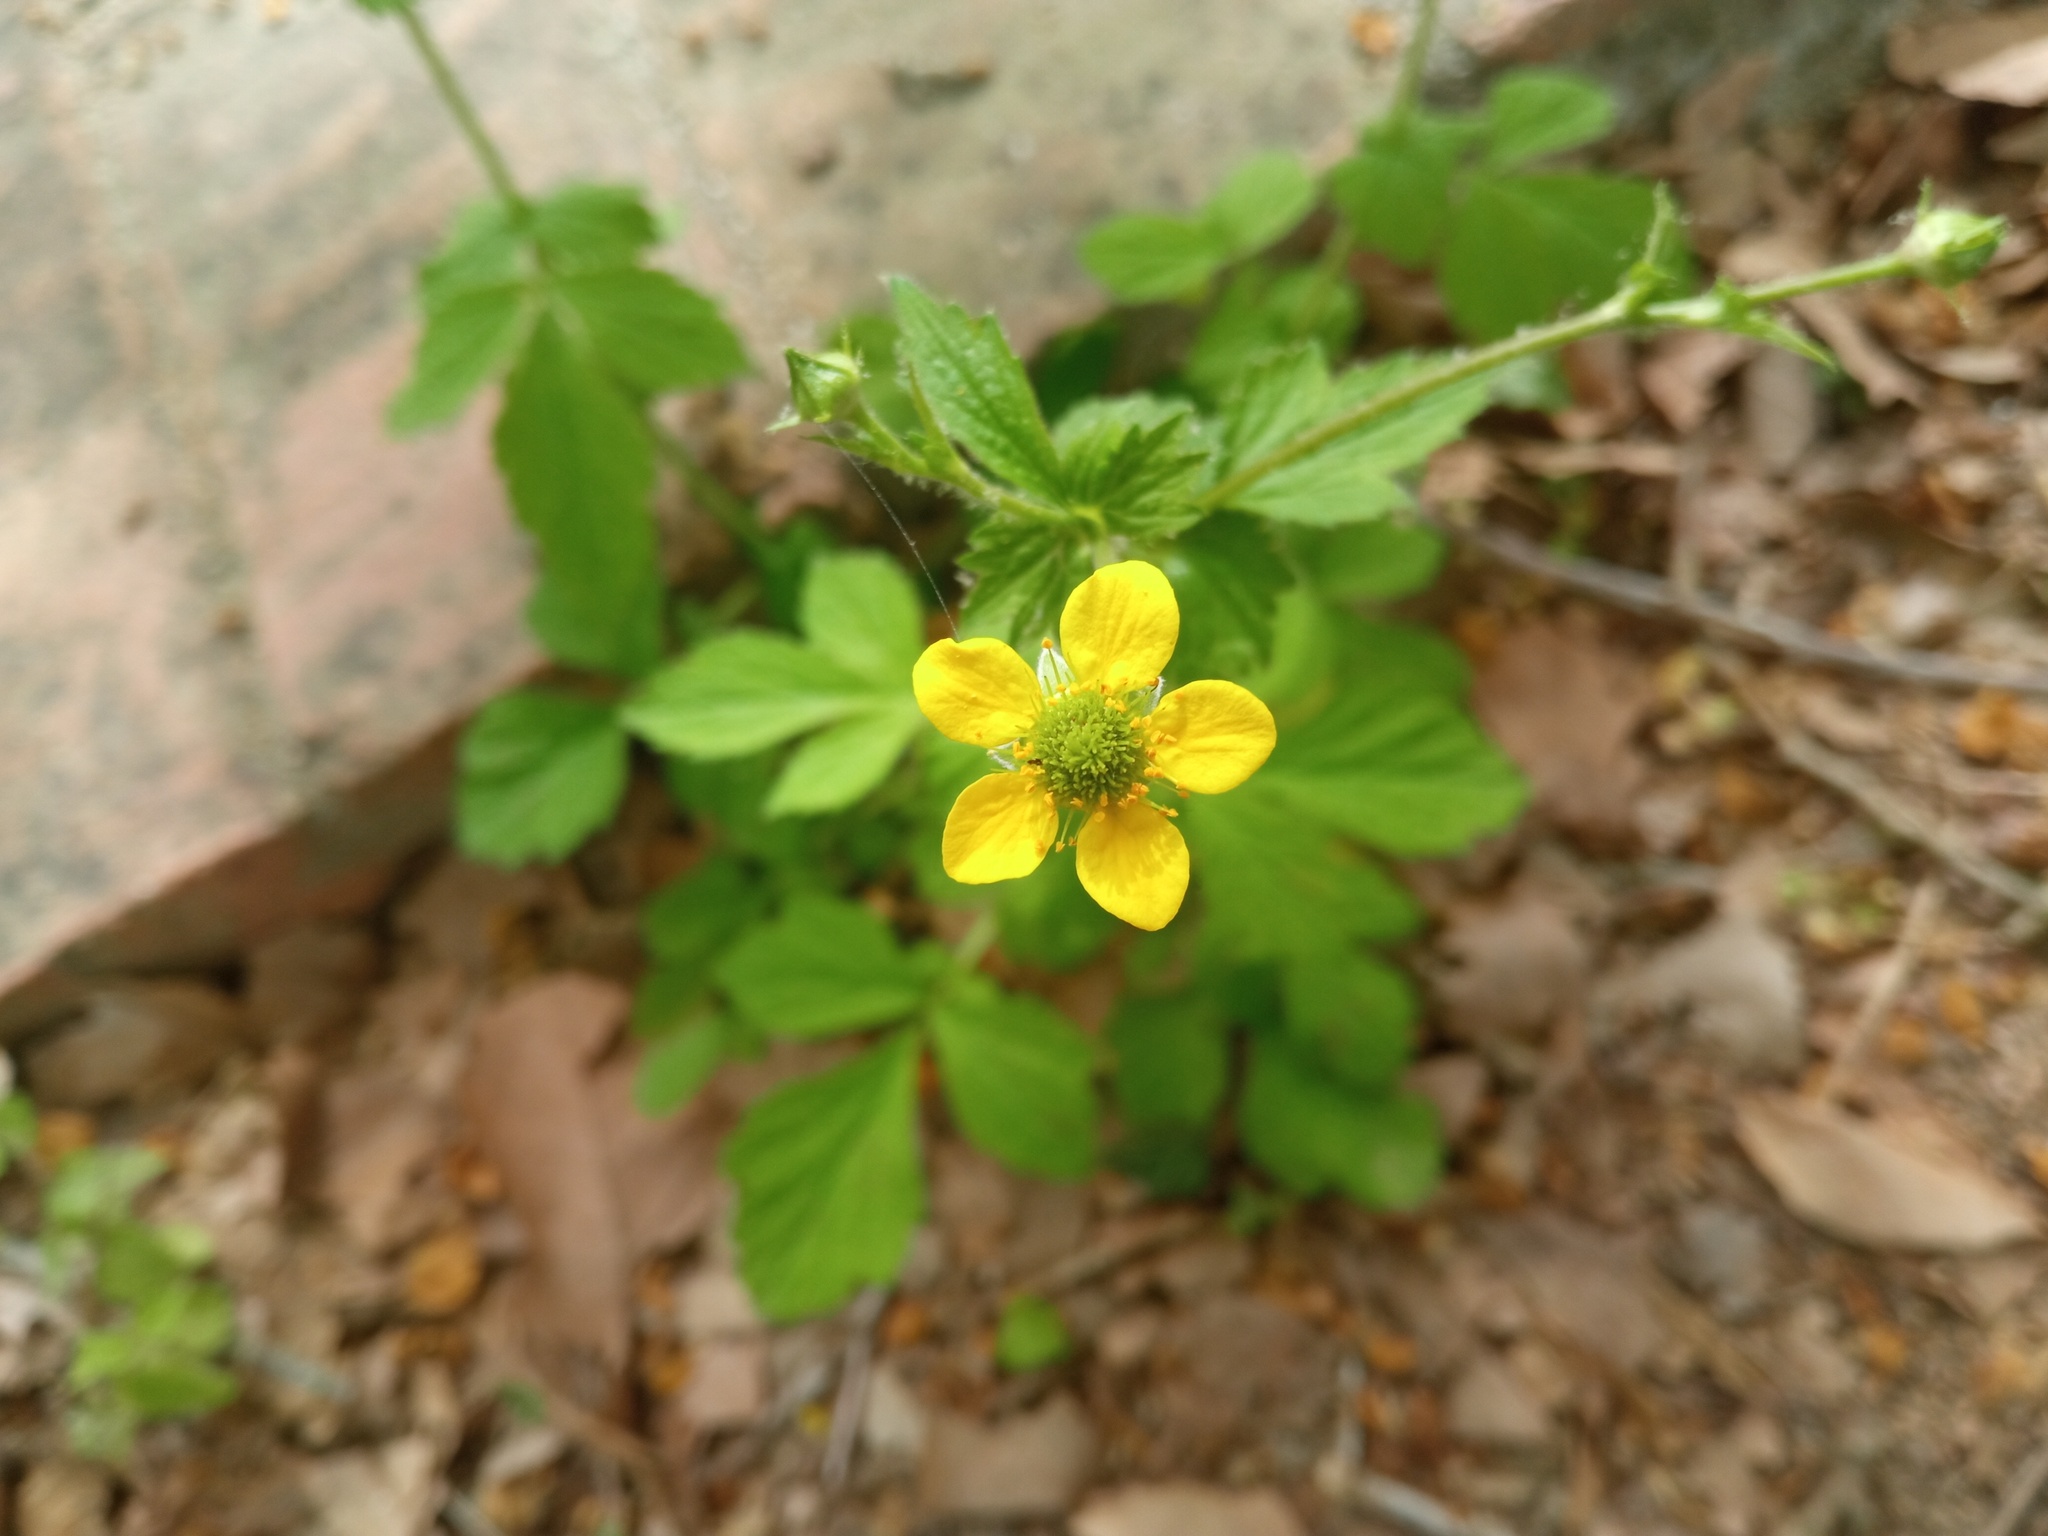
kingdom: Plantae
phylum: Tracheophyta
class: Magnoliopsida
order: Rosales
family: Rosaceae
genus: Geum
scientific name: Geum urbanum
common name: Wood avens
